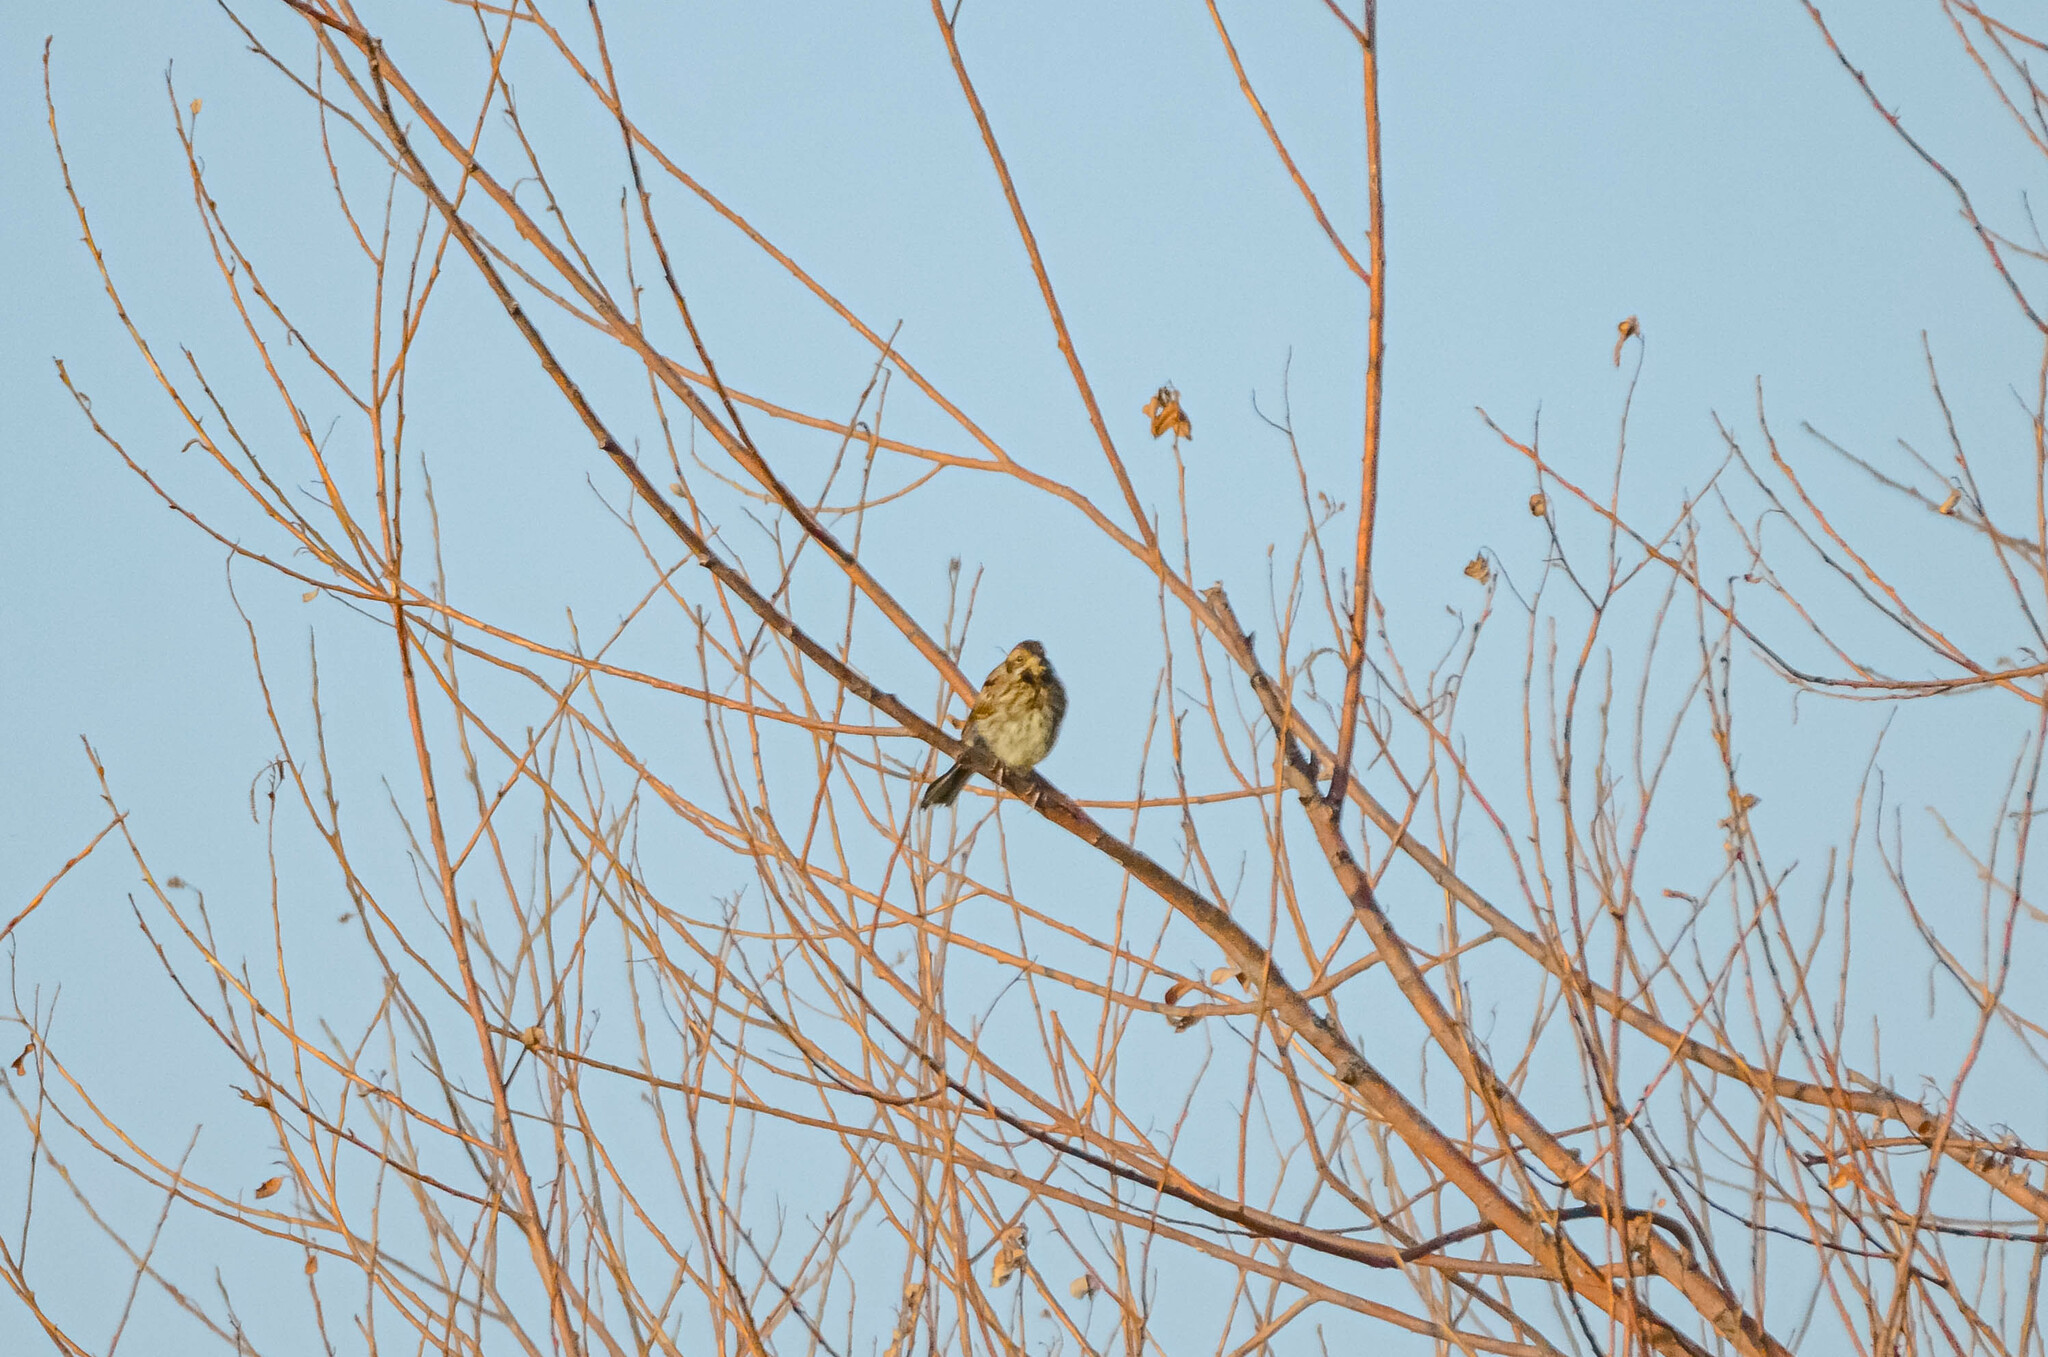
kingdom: Animalia
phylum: Chordata
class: Aves
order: Passeriformes
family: Emberizidae
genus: Emberiza
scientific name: Emberiza schoeniclus
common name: Reed bunting
